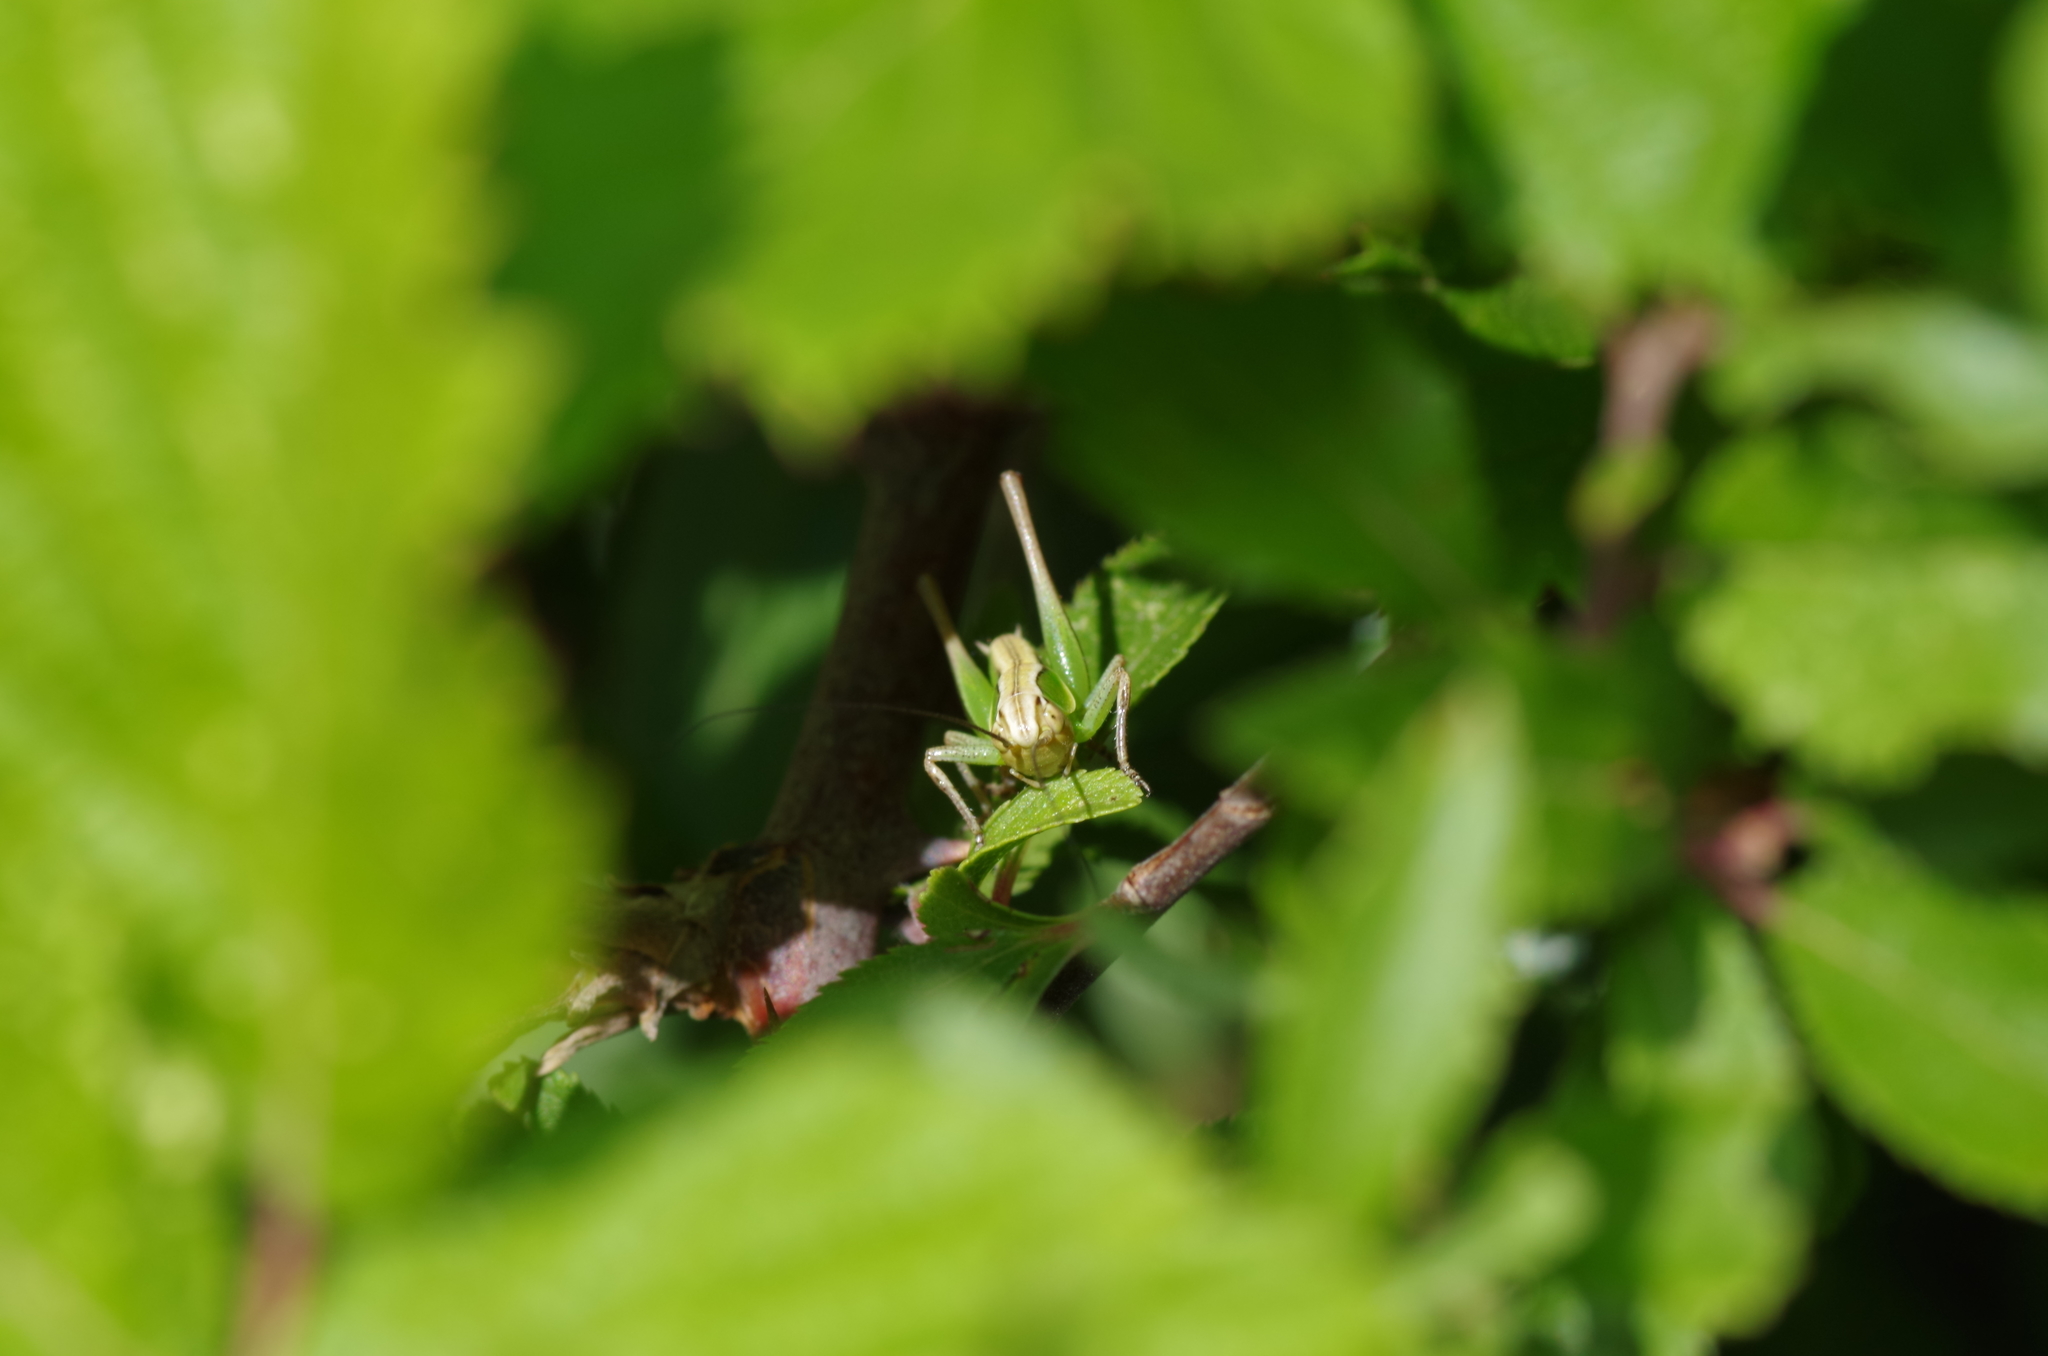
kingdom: Animalia
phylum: Arthropoda
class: Insecta
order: Orthoptera
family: Tettigoniidae
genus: Sepiana
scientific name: Sepiana sepium
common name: Sepia bush-cricket
